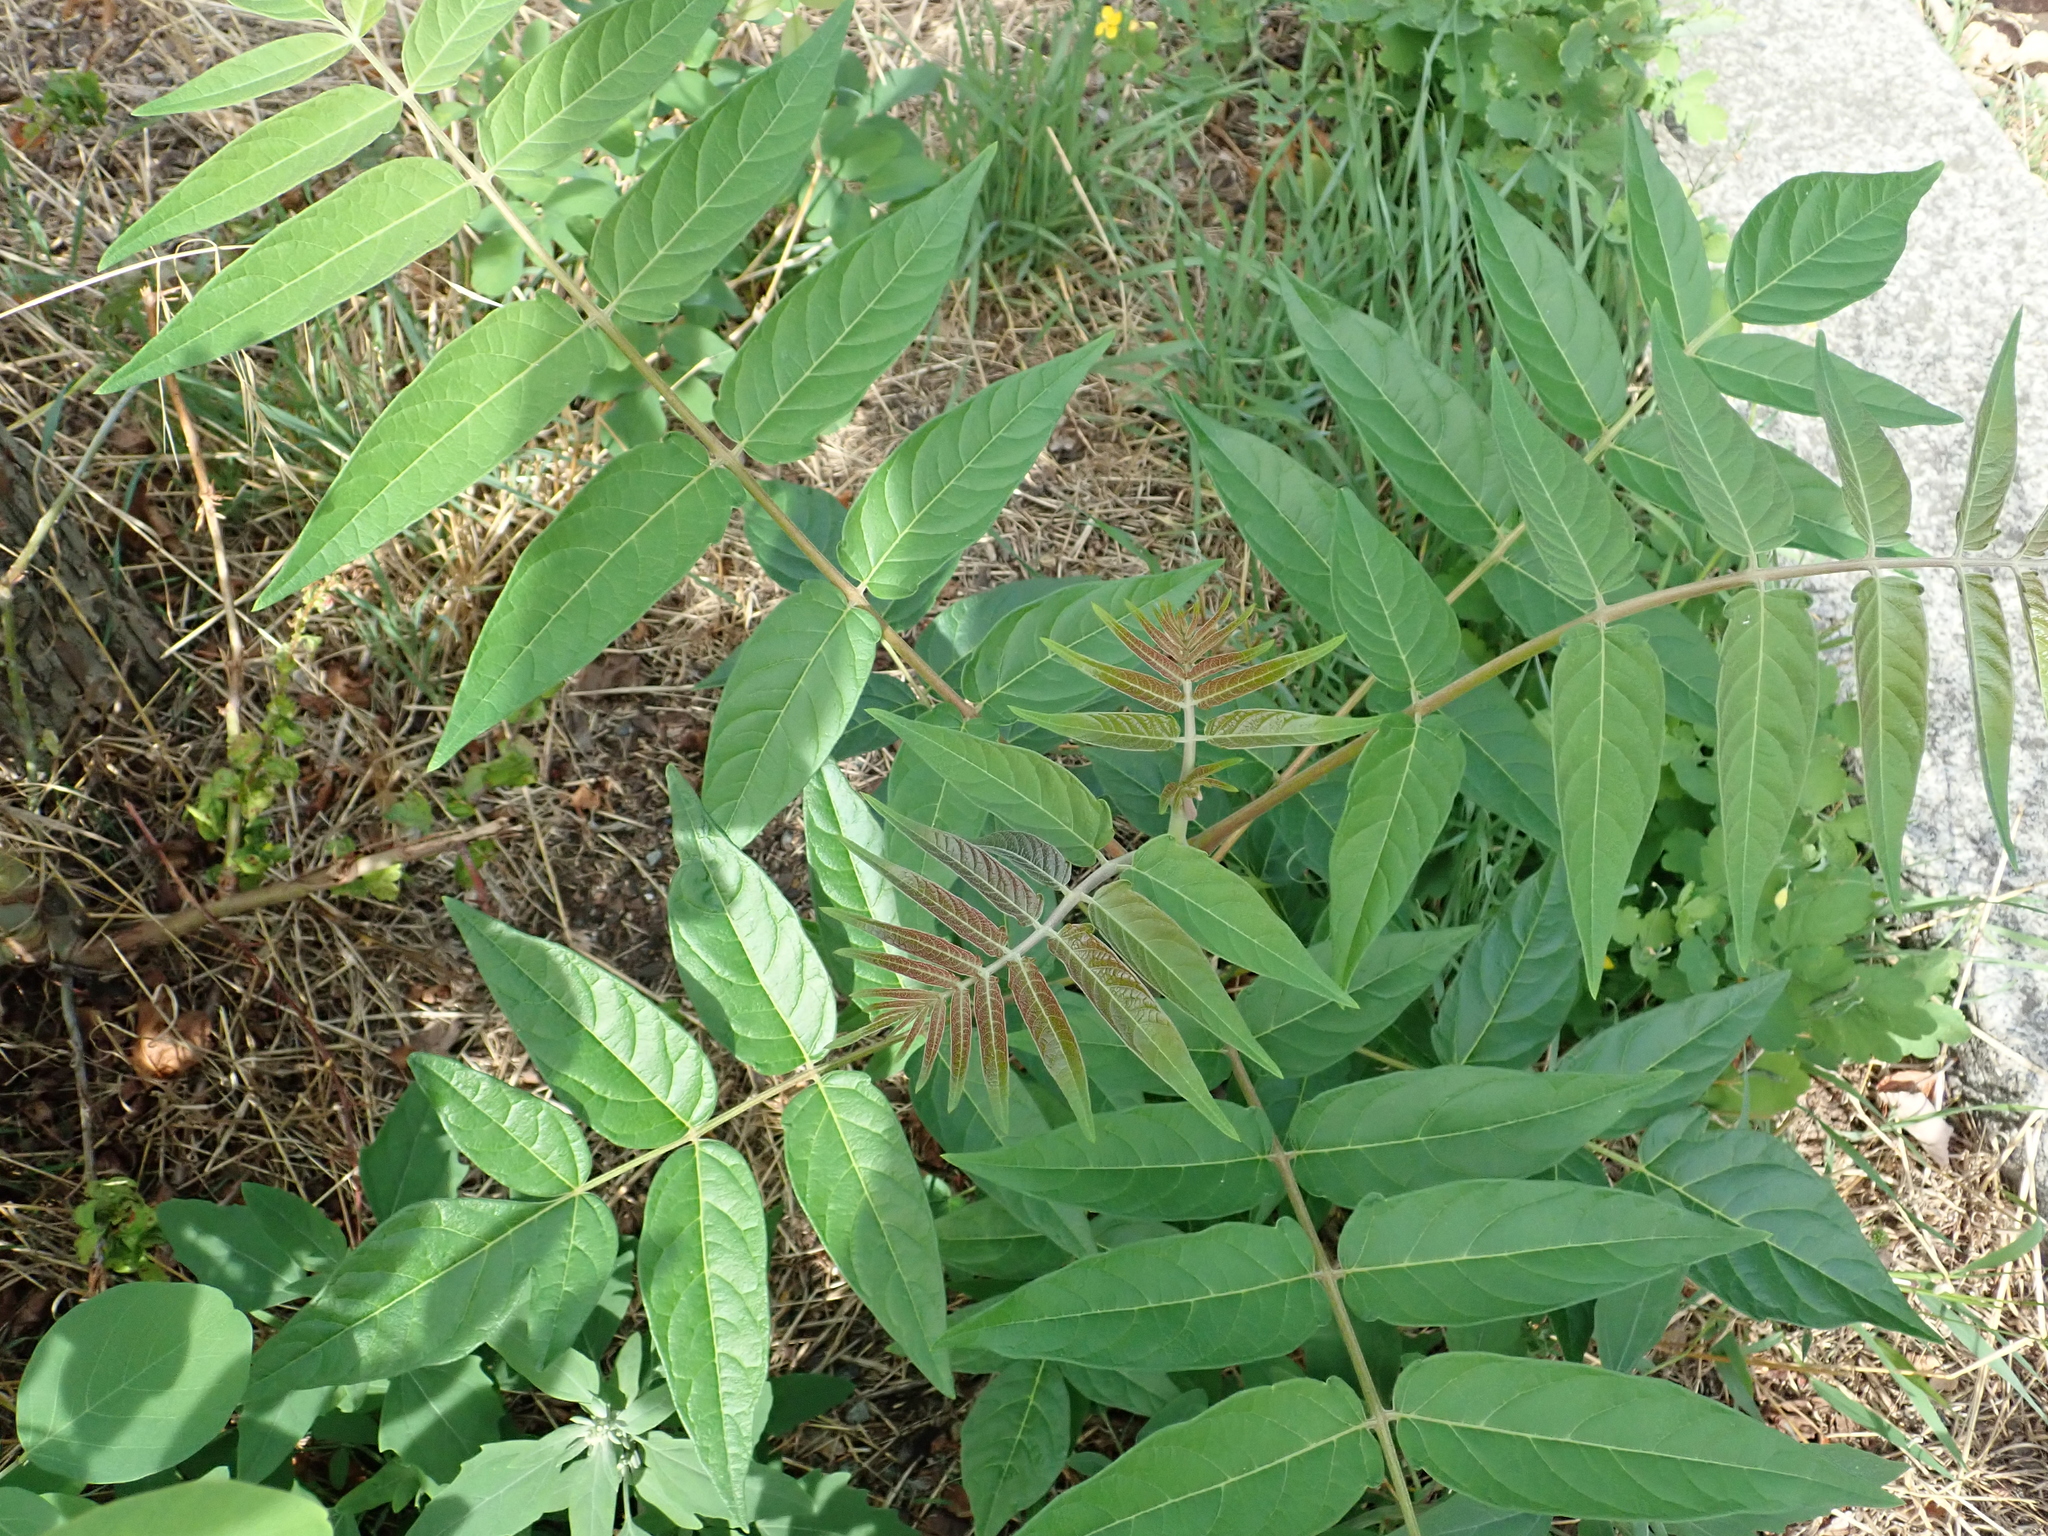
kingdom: Plantae
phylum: Tracheophyta
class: Magnoliopsida
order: Sapindales
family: Simaroubaceae
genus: Ailanthus
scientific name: Ailanthus altissima
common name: Tree-of-heaven
